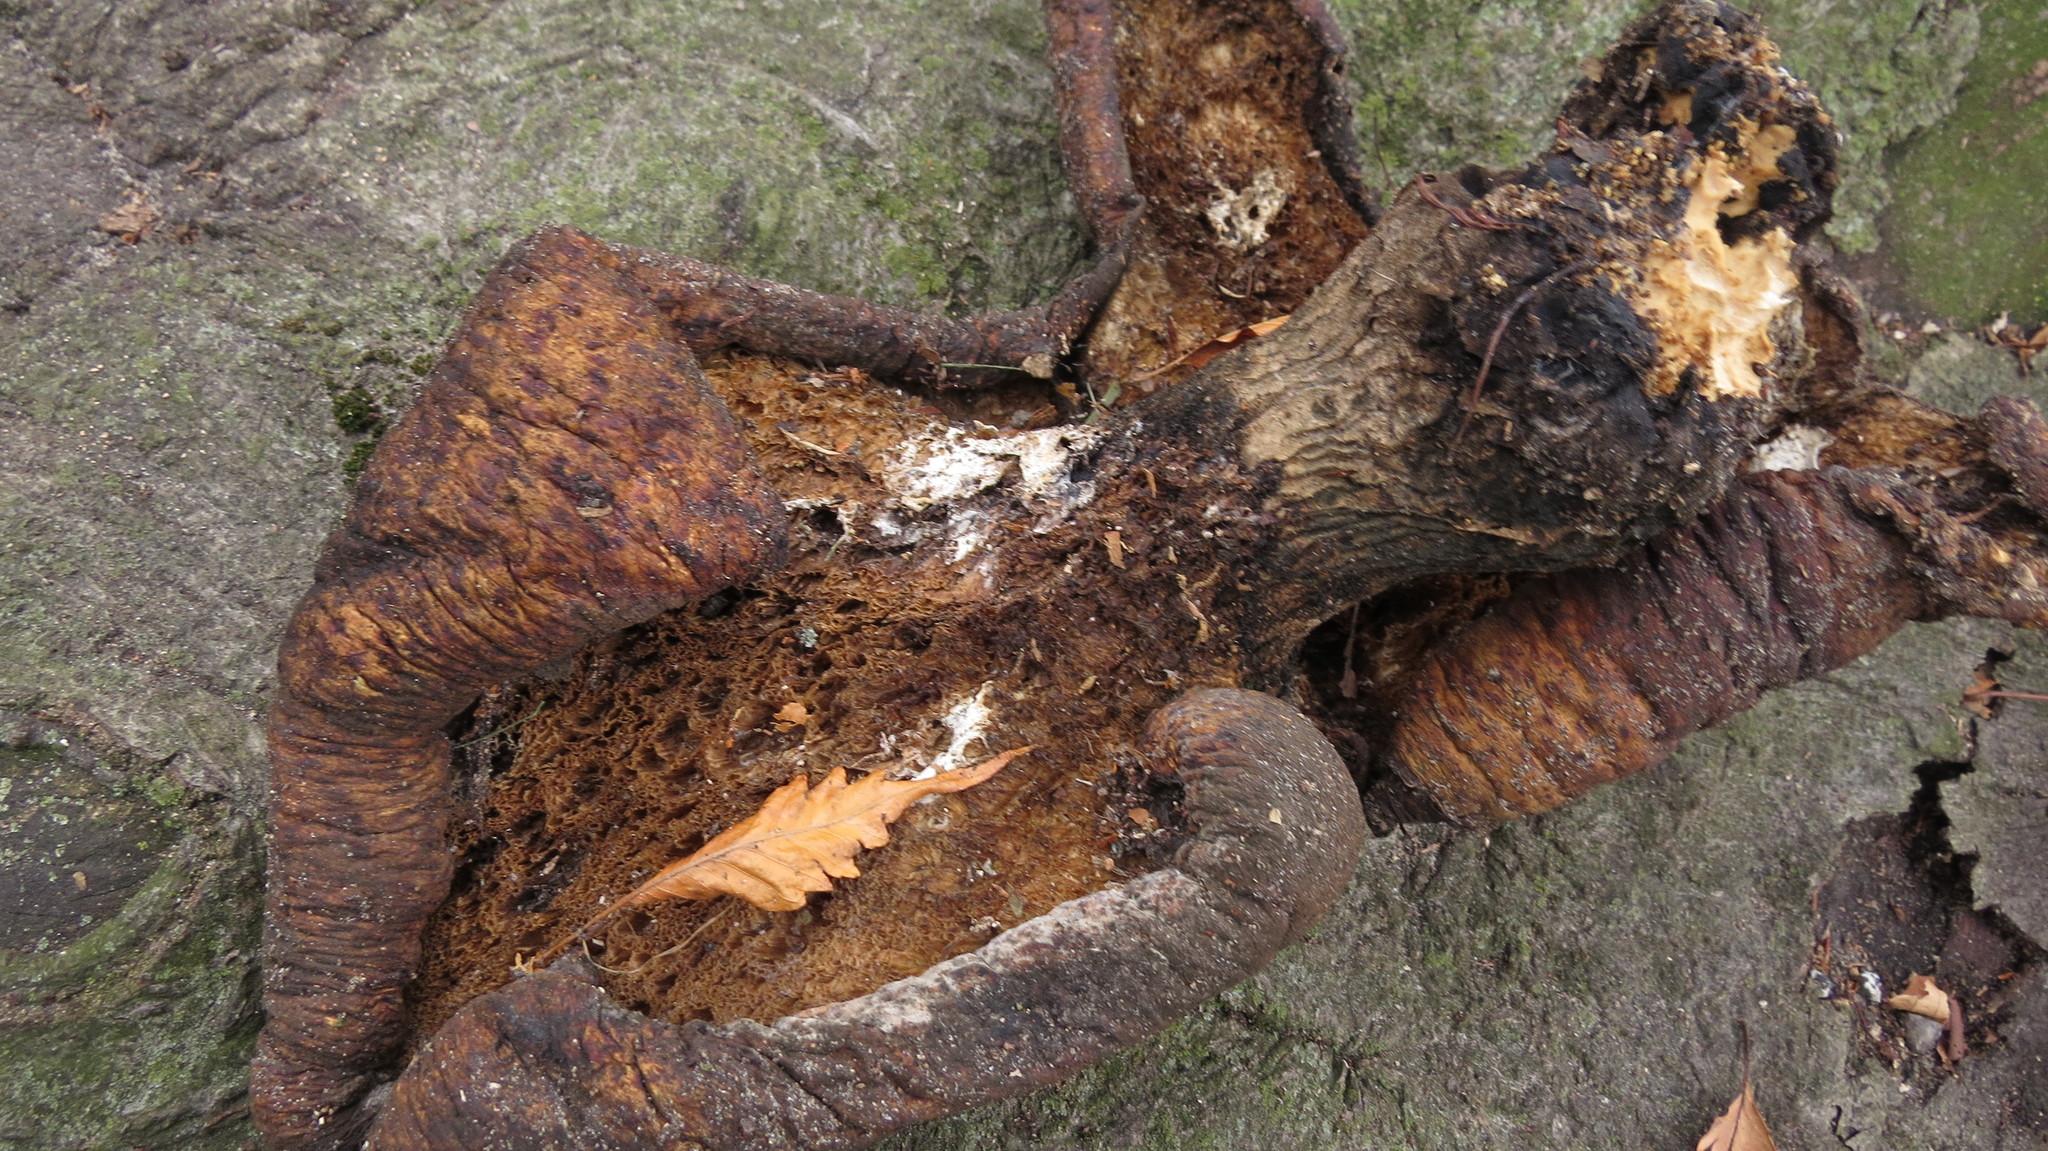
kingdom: Fungi
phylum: Basidiomycota
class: Agaricomycetes
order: Polyporales
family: Polyporaceae
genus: Cerioporus
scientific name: Cerioporus squamosus
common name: Dryad's saddle
